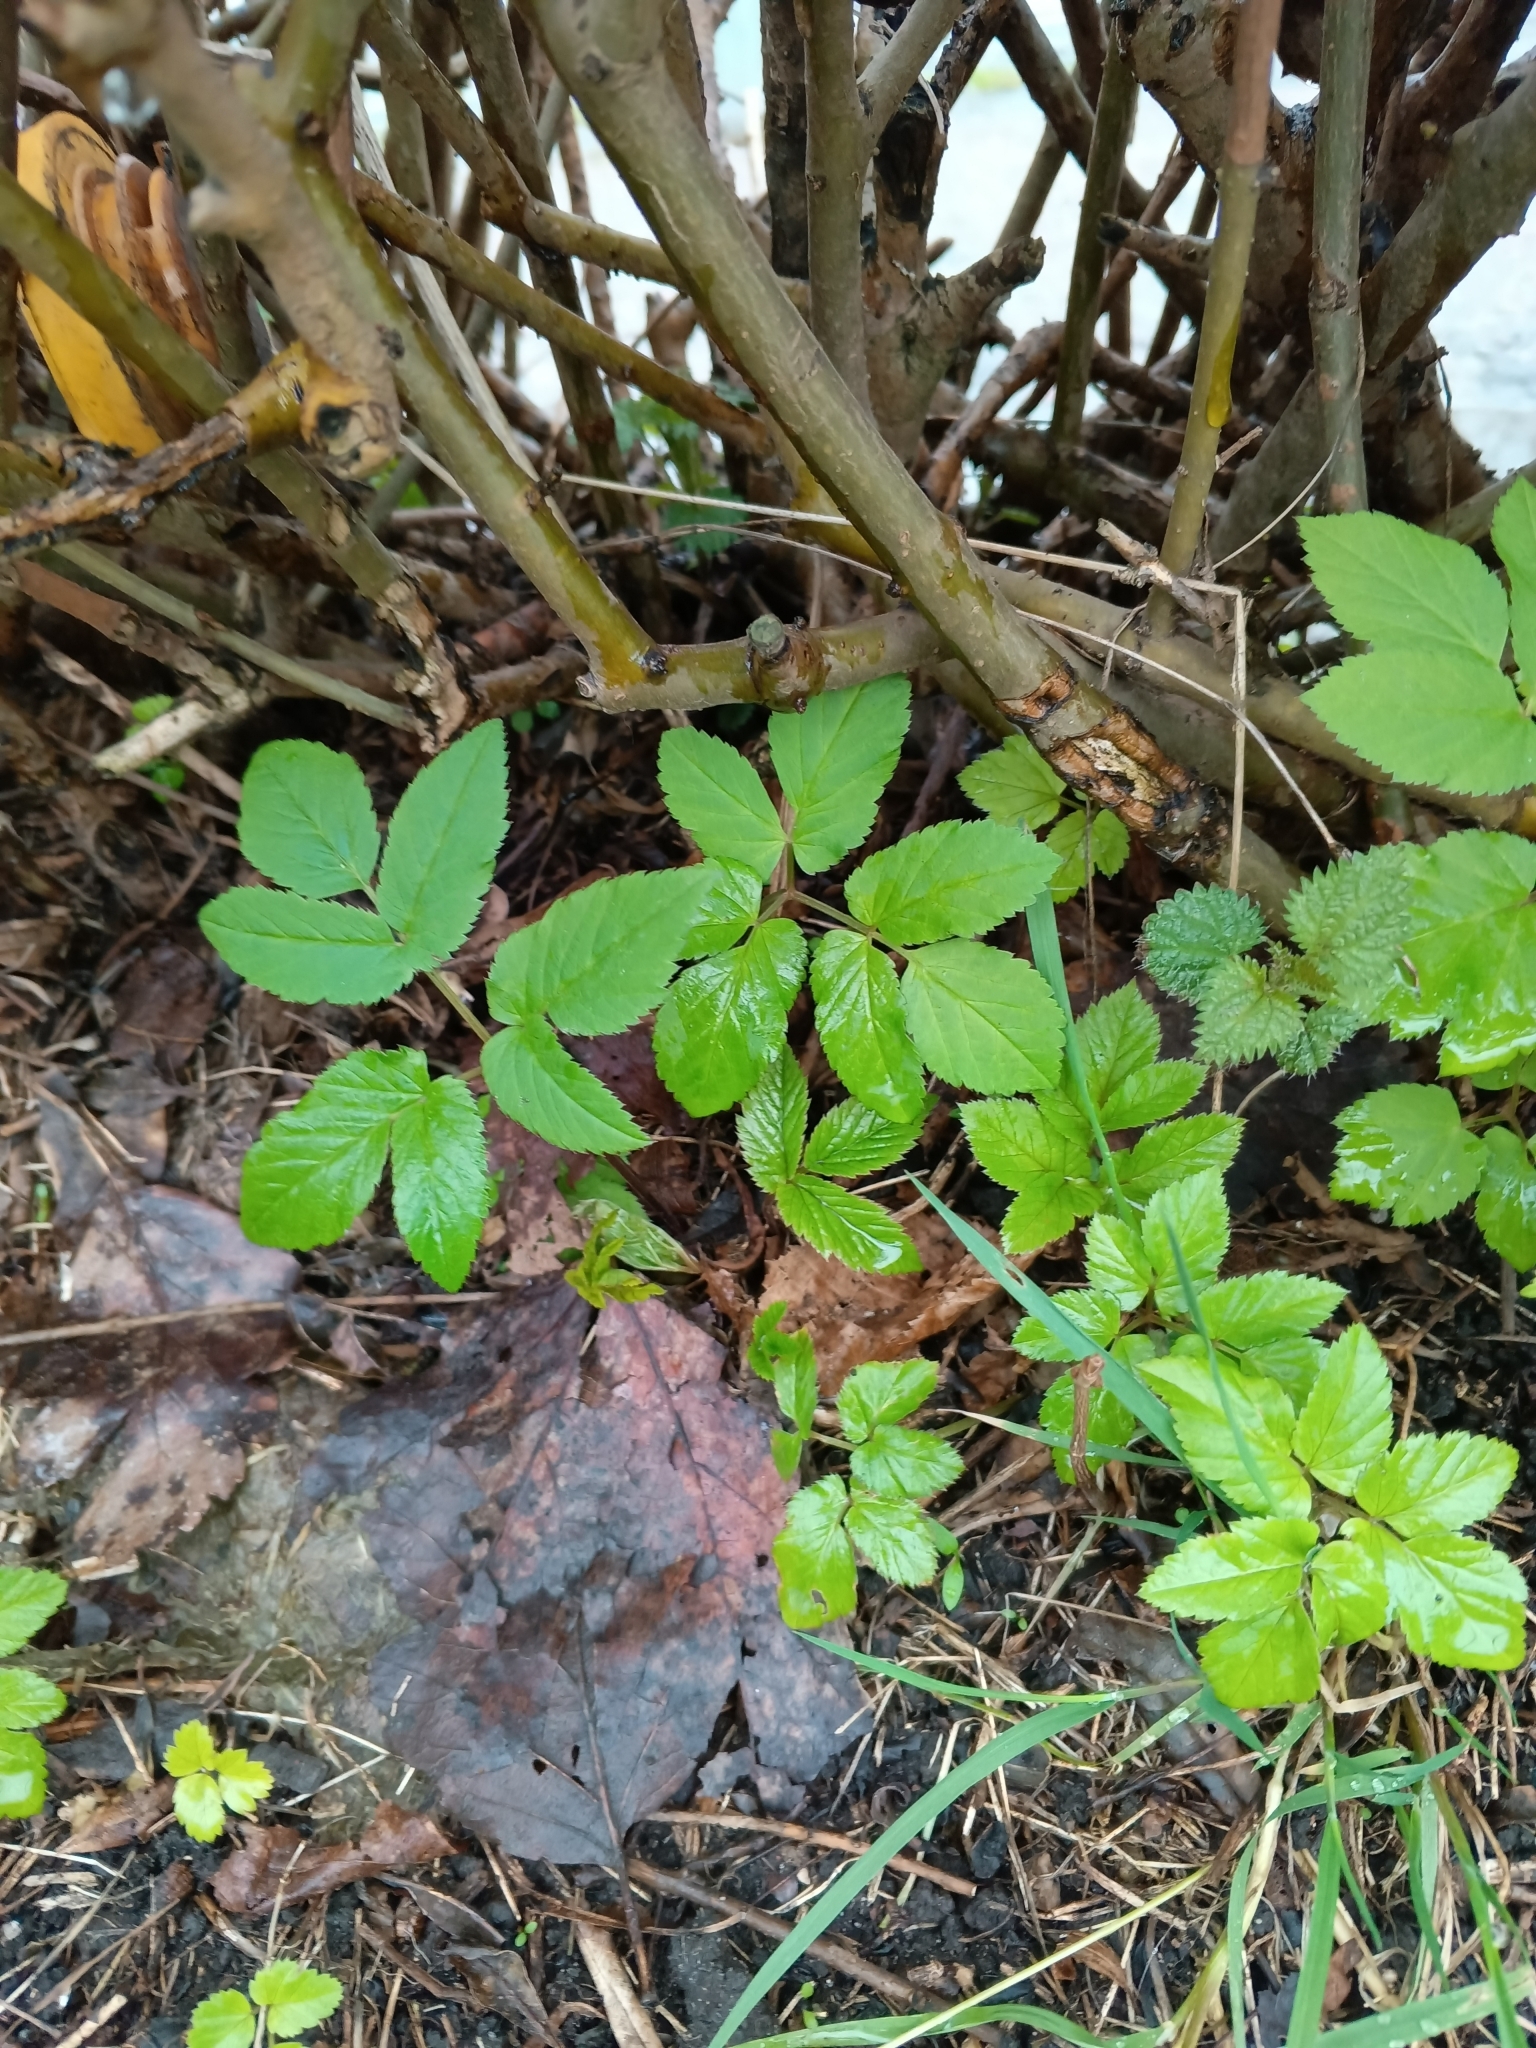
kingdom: Plantae
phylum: Tracheophyta
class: Magnoliopsida
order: Apiales
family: Apiaceae
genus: Aegopodium
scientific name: Aegopodium podagraria
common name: Ground-elder
